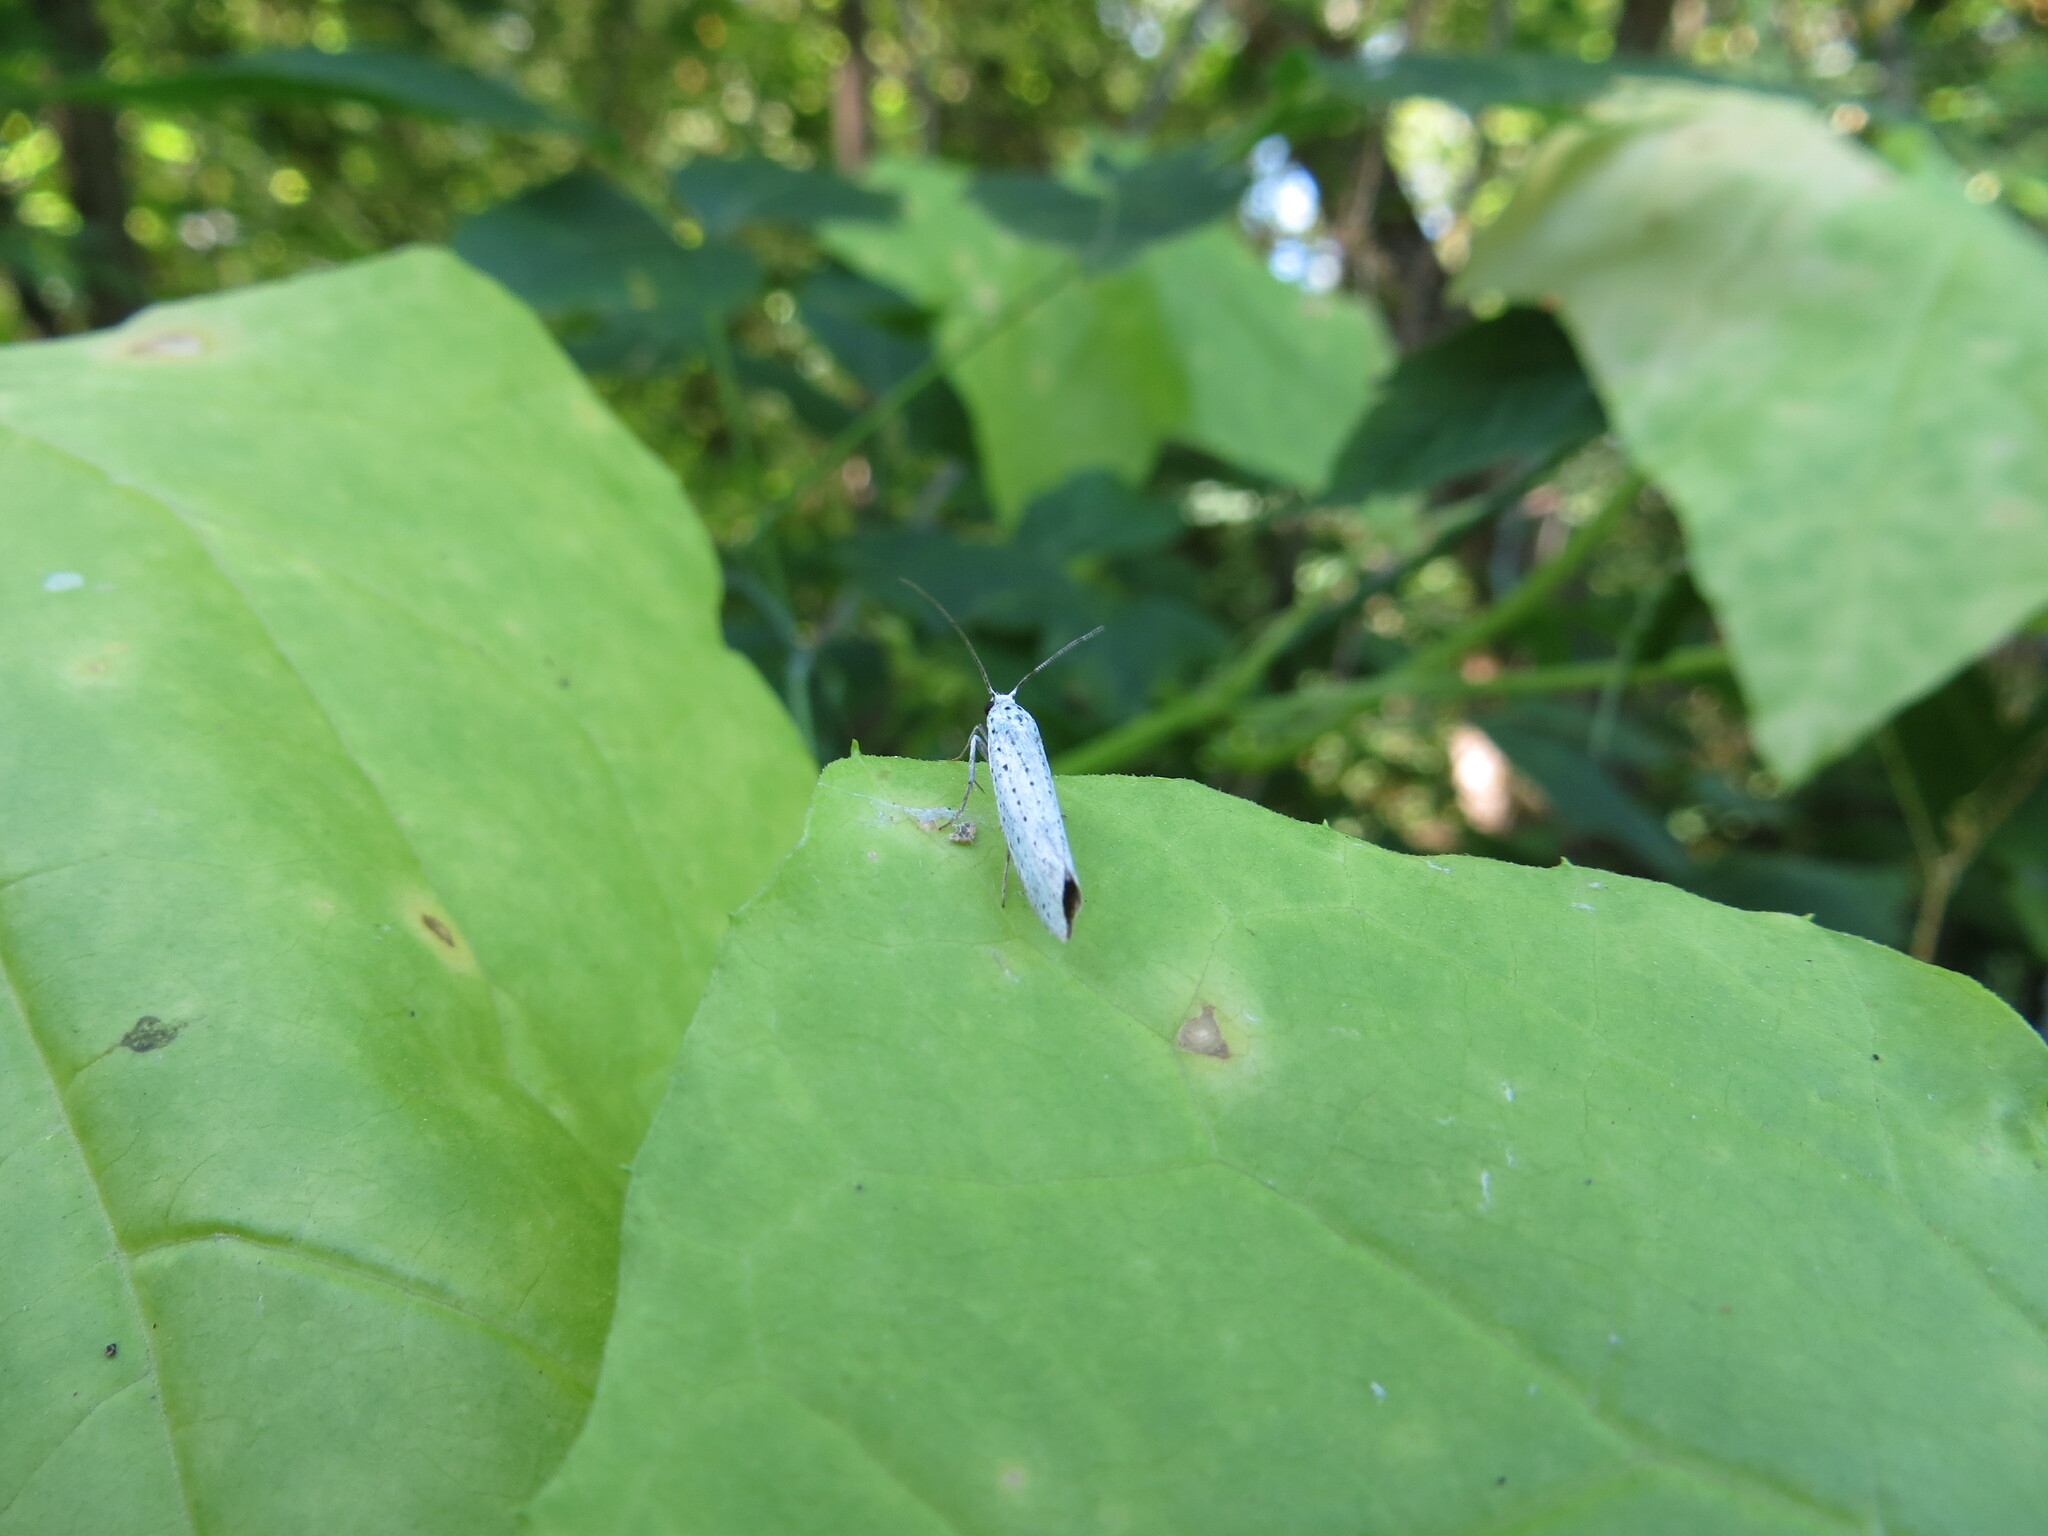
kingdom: Animalia
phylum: Arthropoda
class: Insecta
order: Lepidoptera
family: Yponomeutidae
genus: Yponomeuta
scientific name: Yponomeuta evonymella
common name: Bird-cherry ermine
